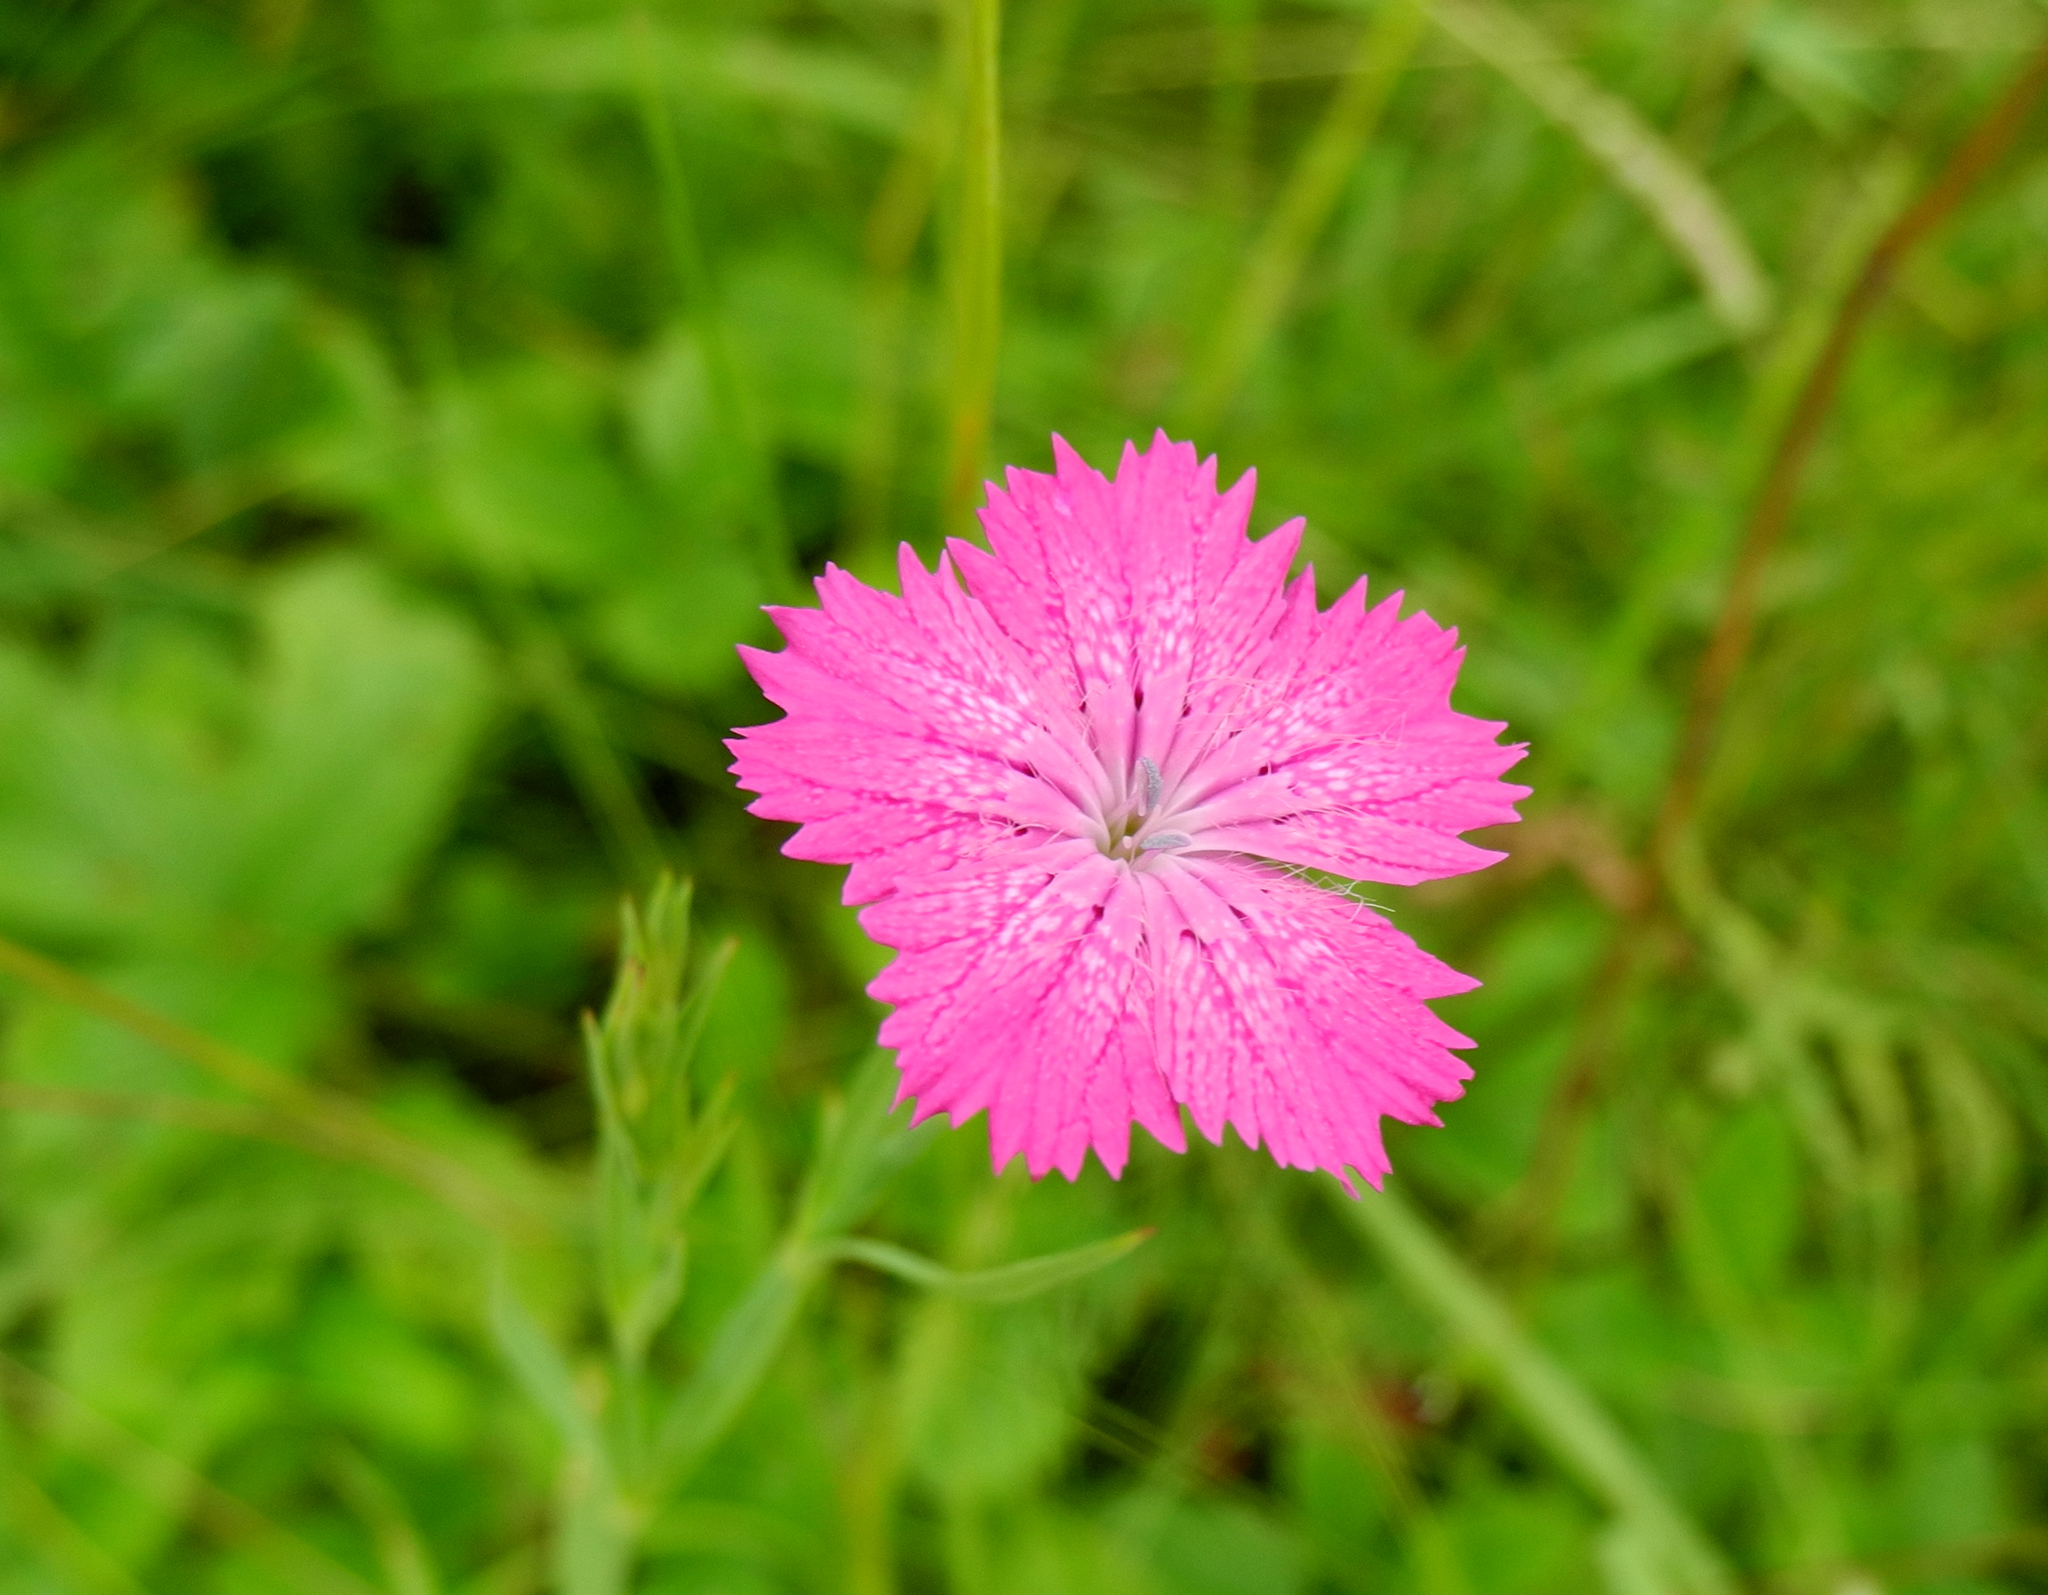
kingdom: Plantae
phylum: Tracheophyta
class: Magnoliopsida
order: Caryophyllales
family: Caryophyllaceae
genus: Dianthus
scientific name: Dianthus chinensis
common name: Rainbow pink
